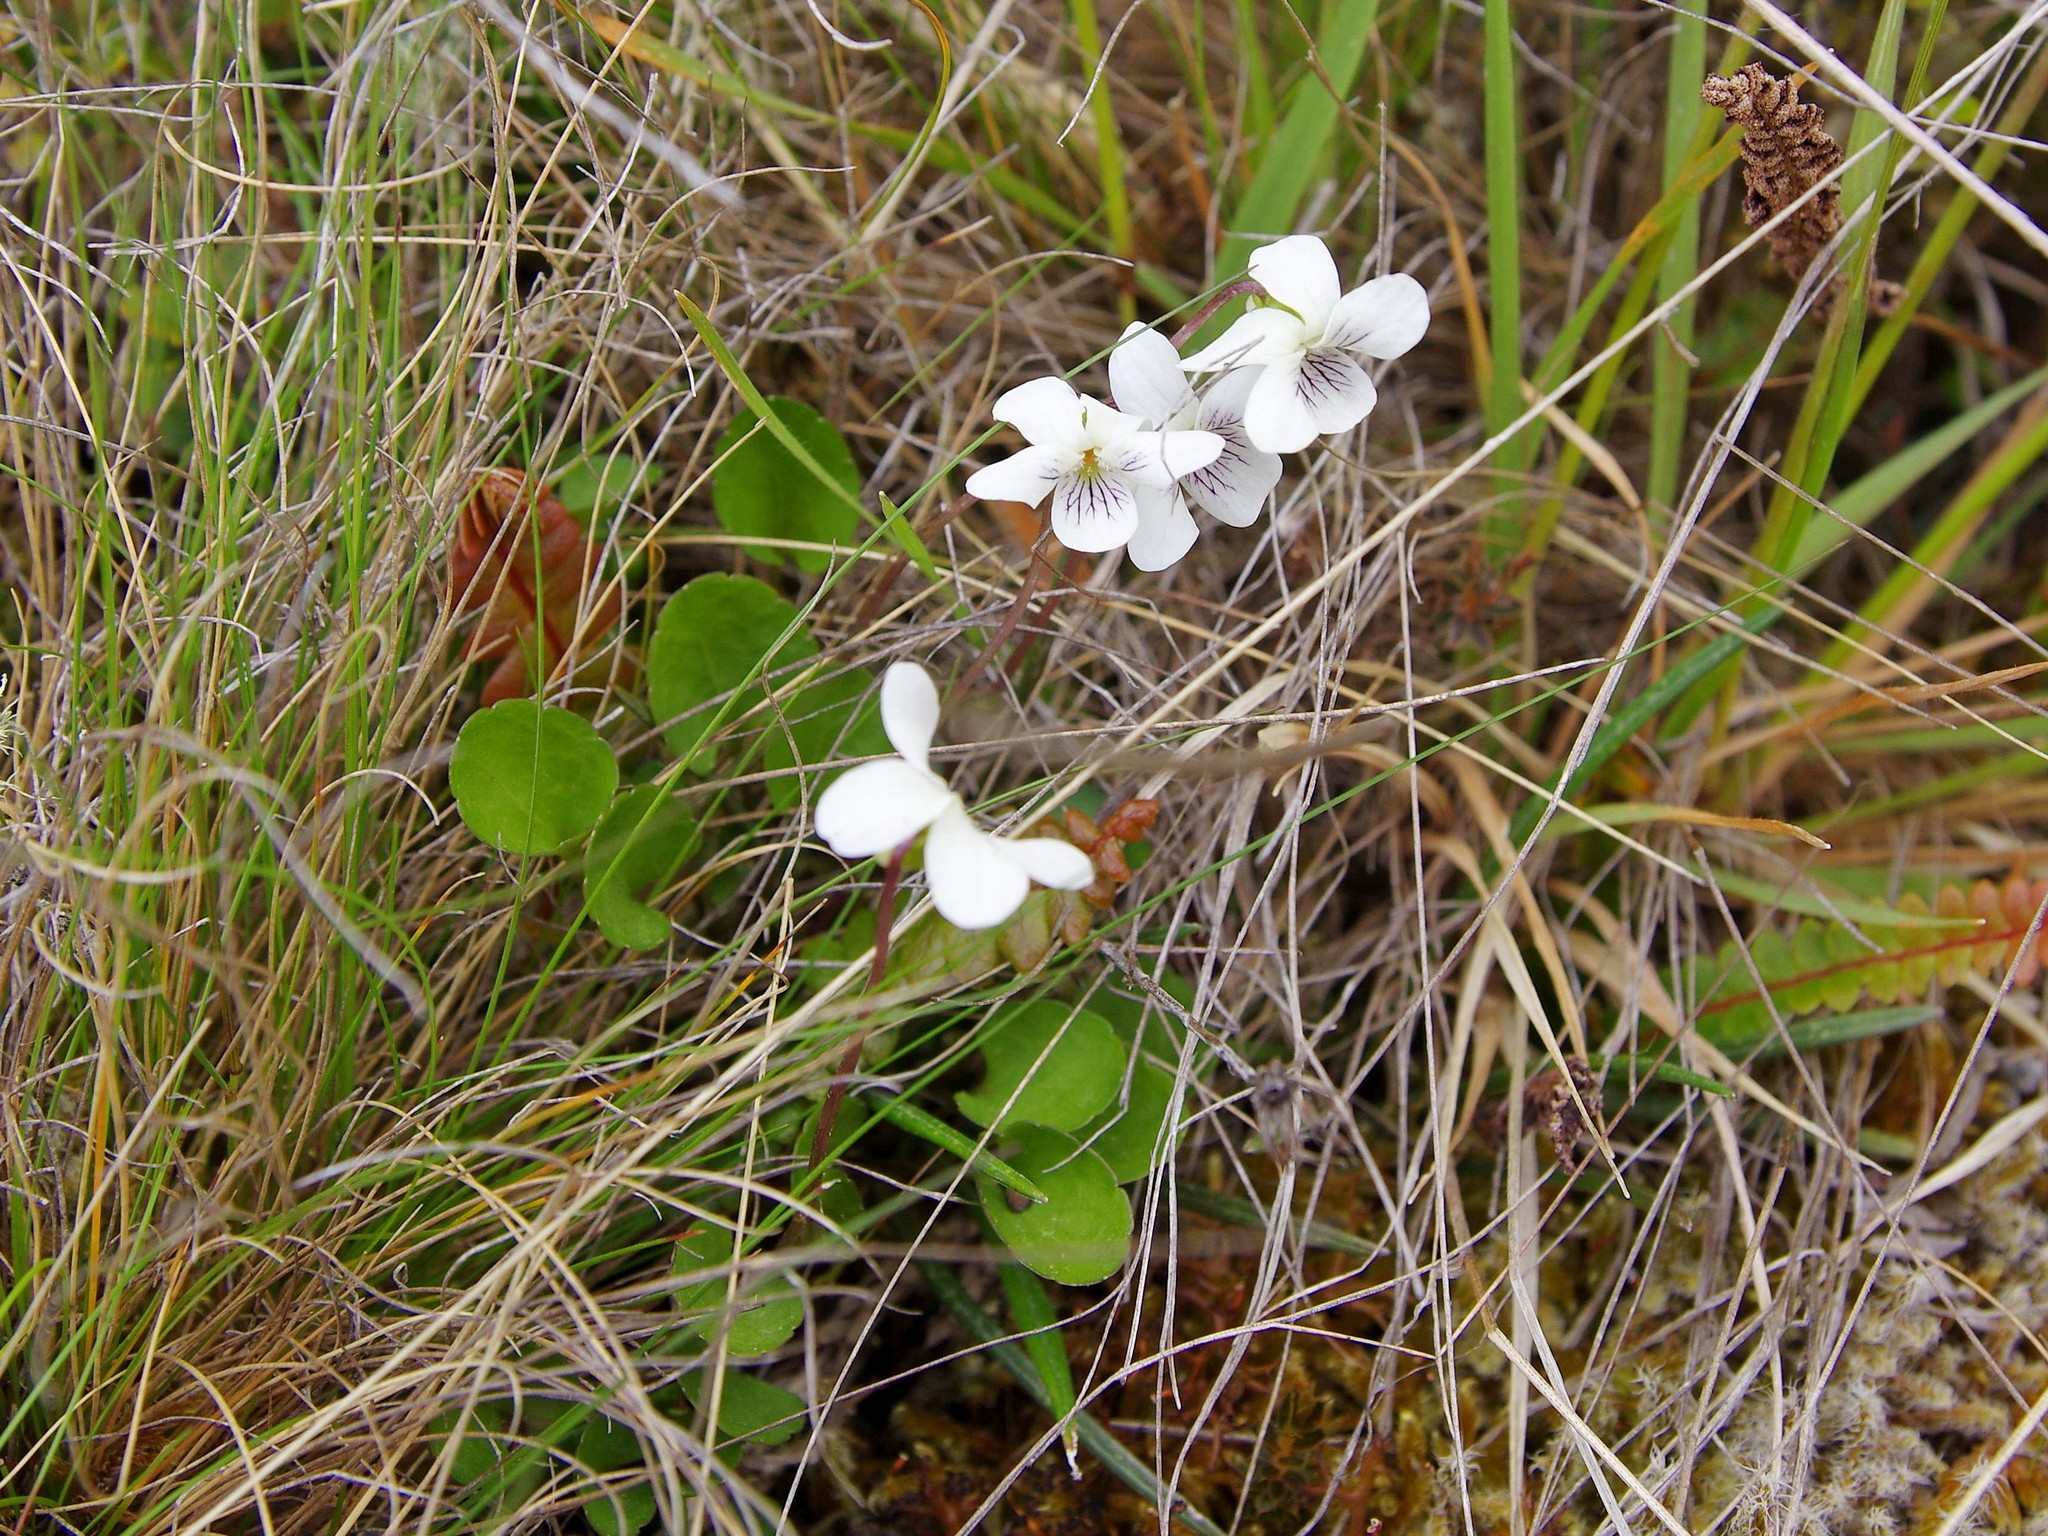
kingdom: Plantae
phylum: Tracheophyta
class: Magnoliopsida
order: Malpighiales
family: Violaceae
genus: Viola
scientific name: Viola cunninghamii
